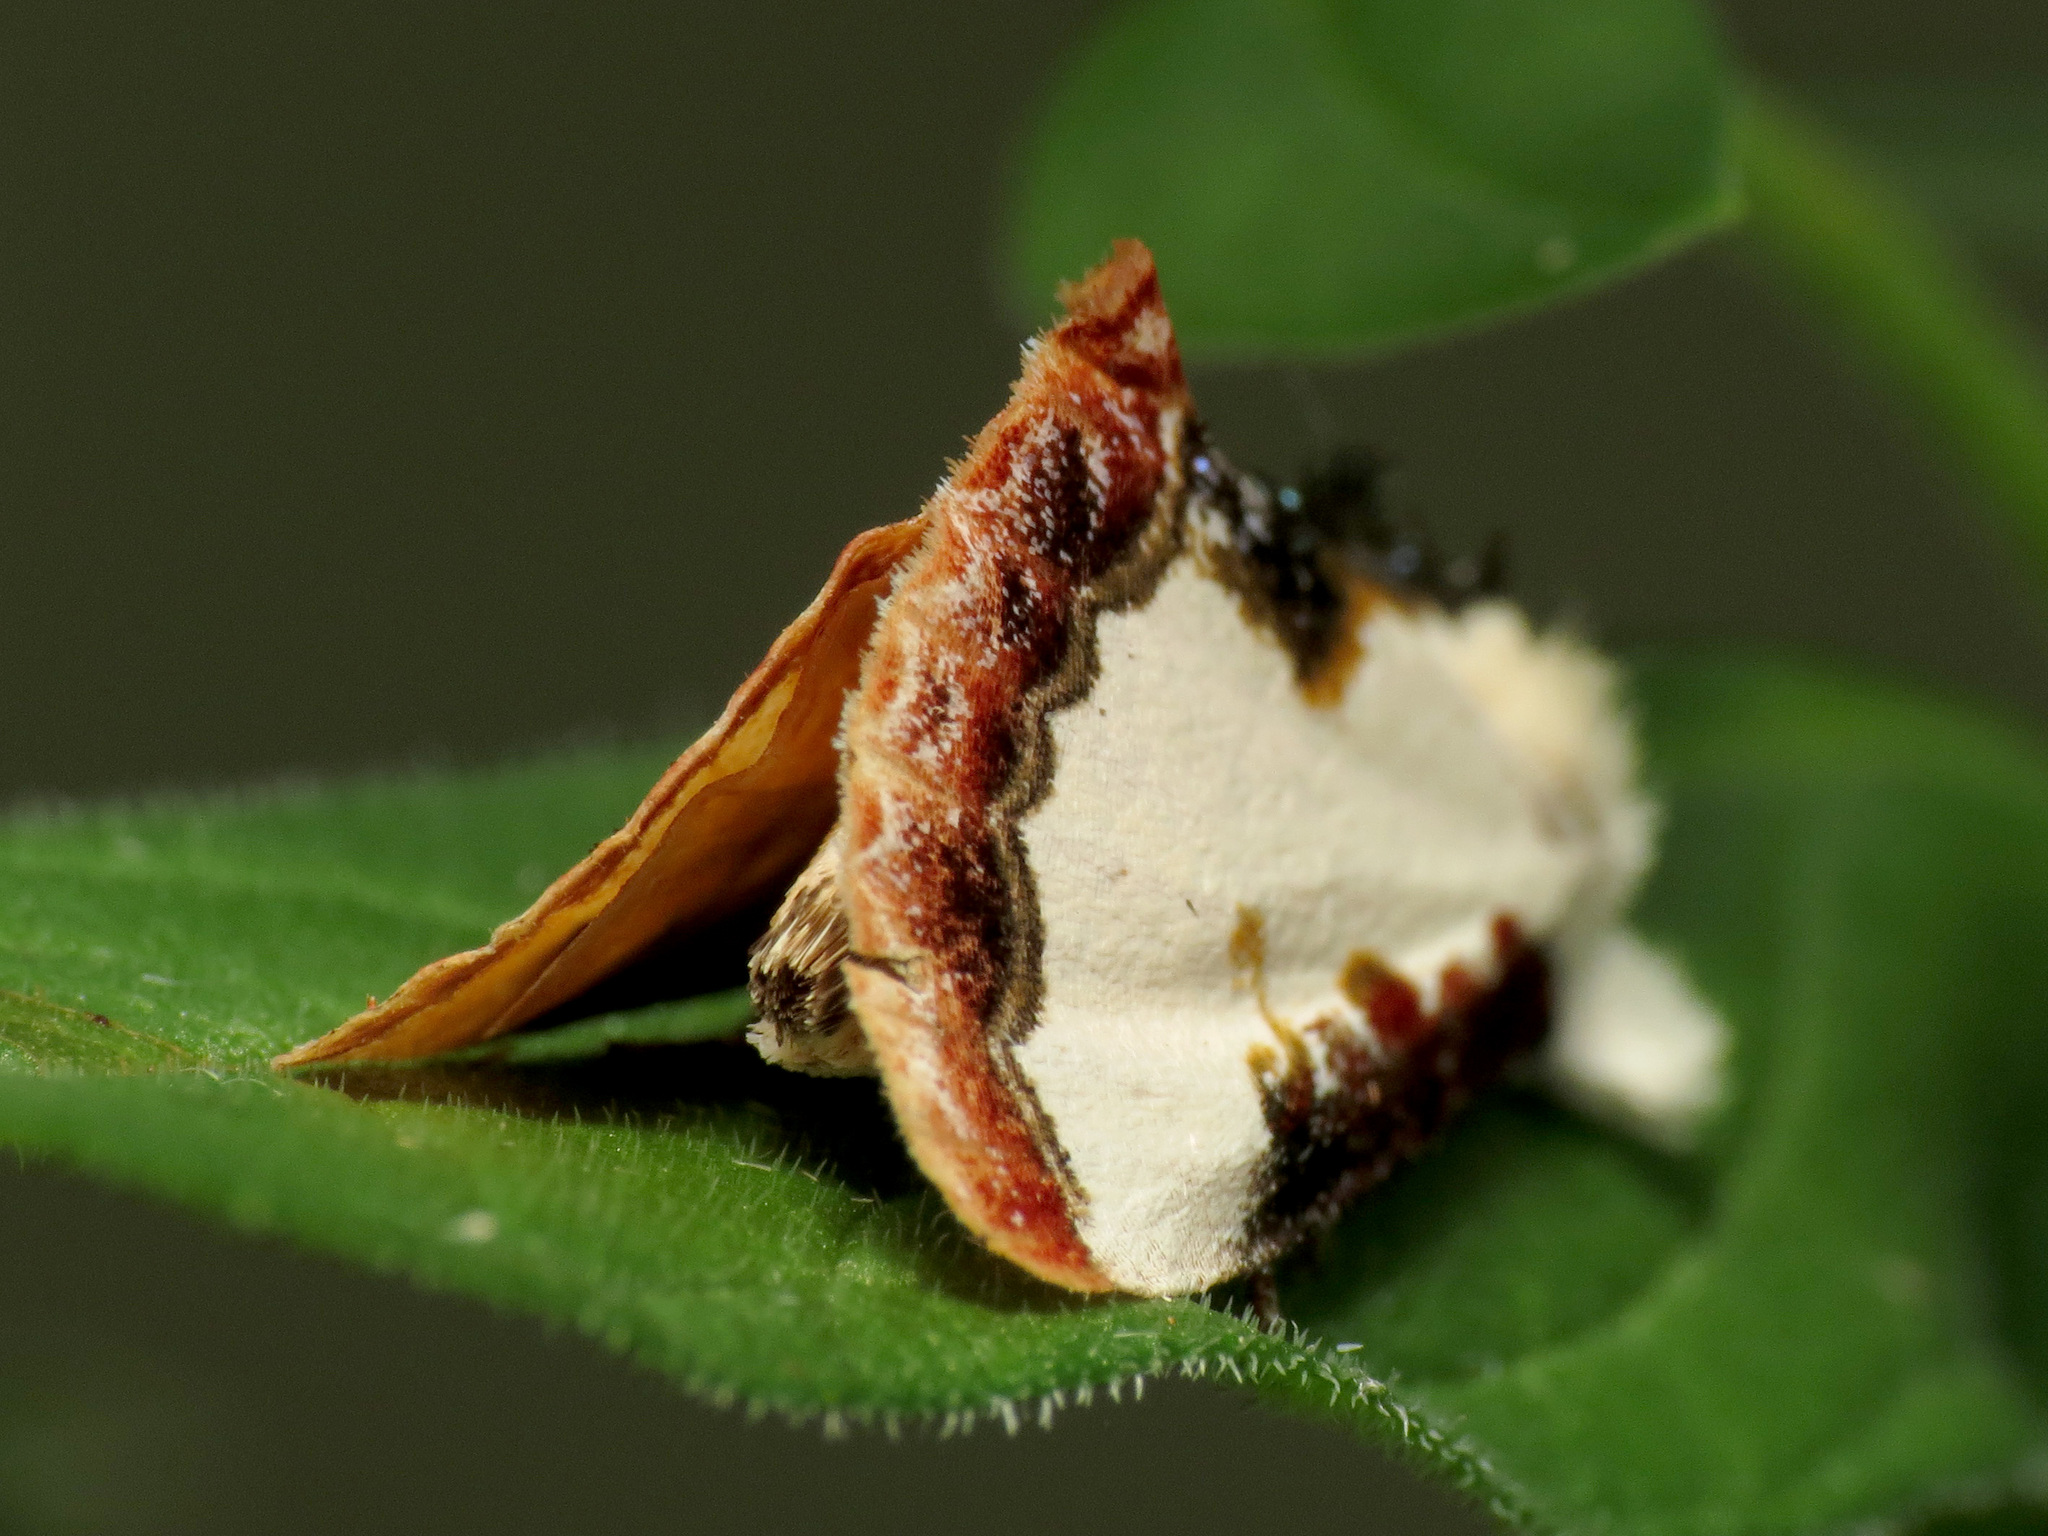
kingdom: Animalia
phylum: Arthropoda
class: Insecta
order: Lepidoptera
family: Noctuidae
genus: Eudryas
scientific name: Eudryas unio
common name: Pearly wood-nymph
